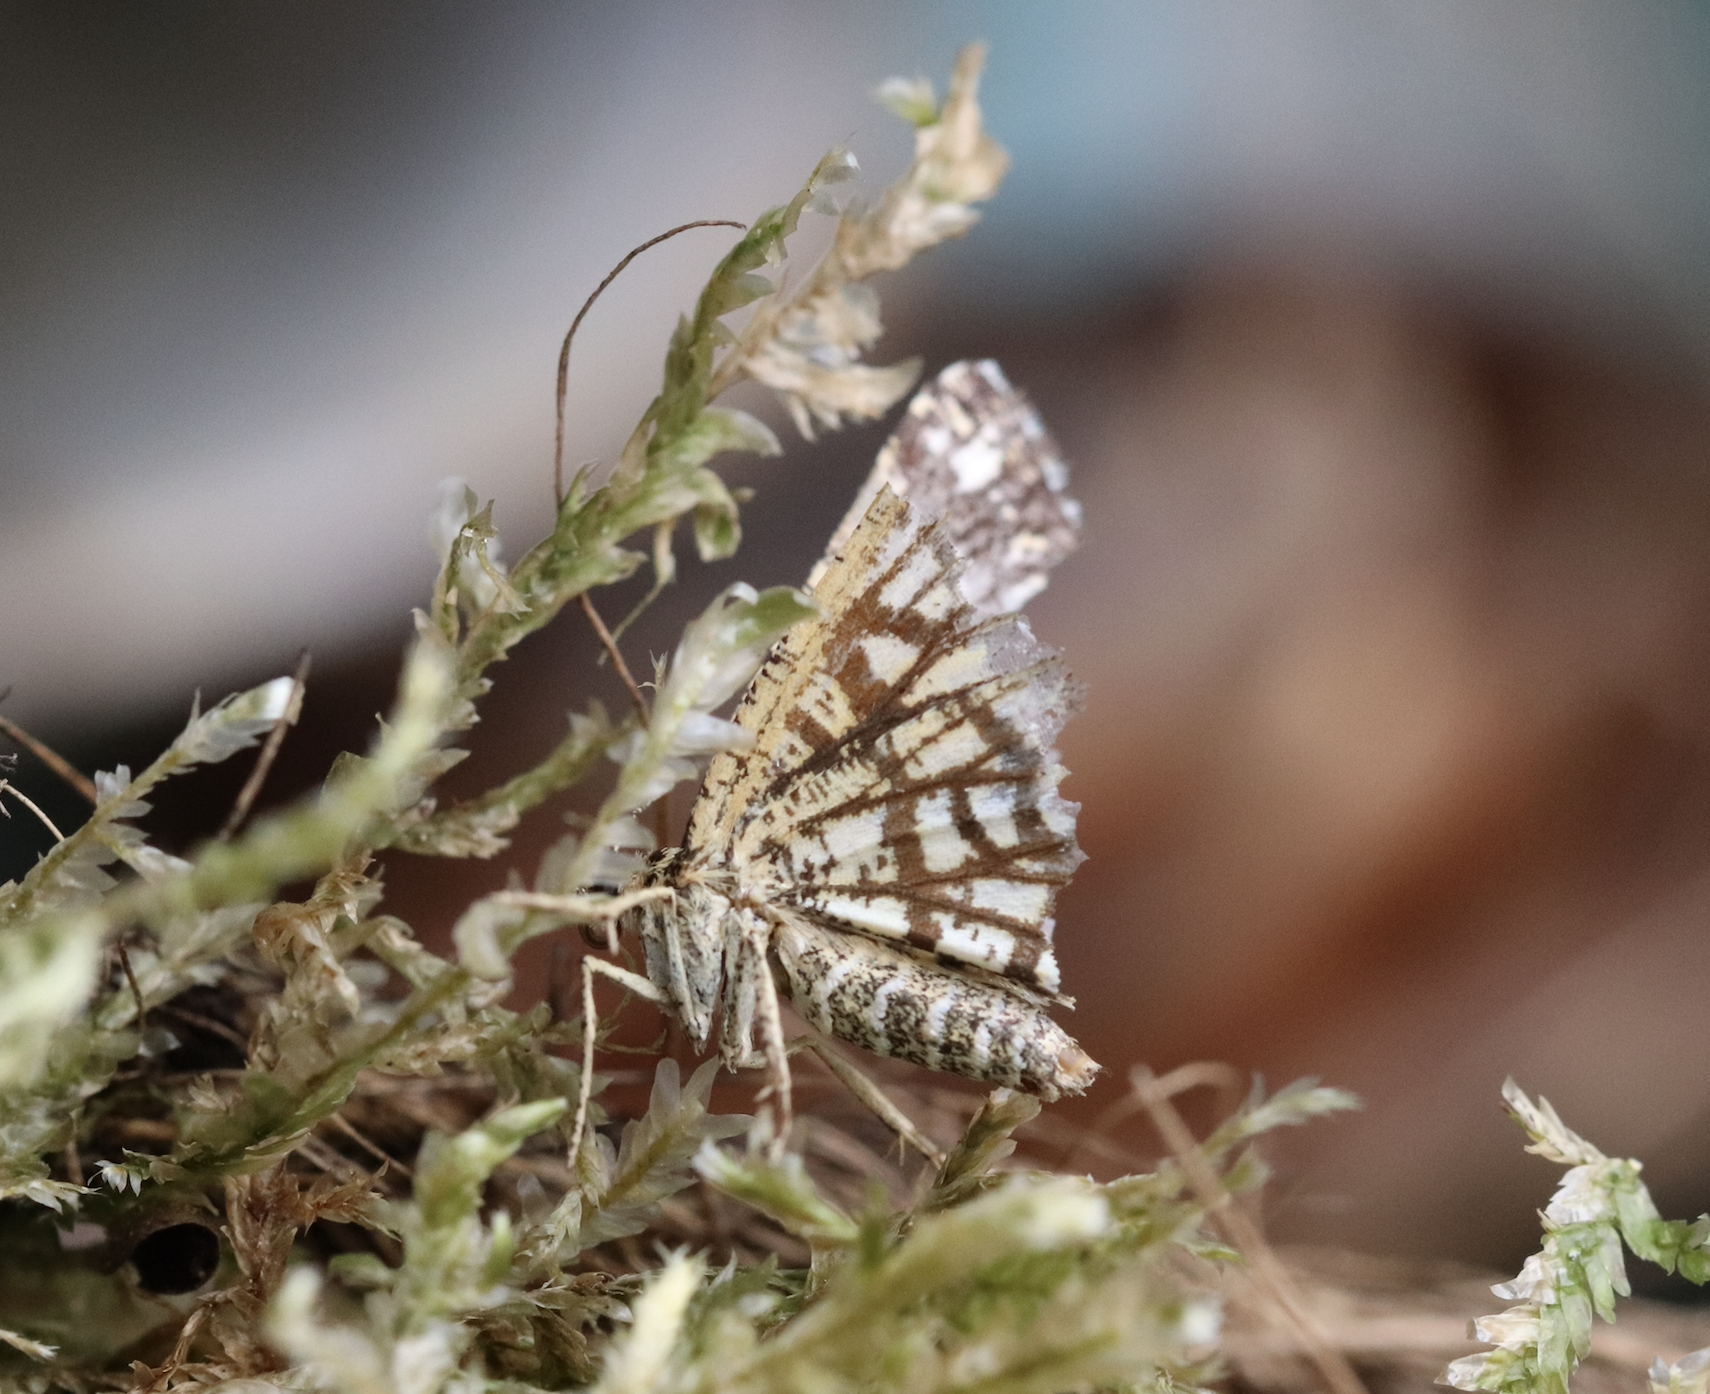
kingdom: Animalia
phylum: Arthropoda
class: Insecta
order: Lepidoptera
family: Geometridae
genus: Chiasmia
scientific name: Chiasmia clathrata
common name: Latticed heath
